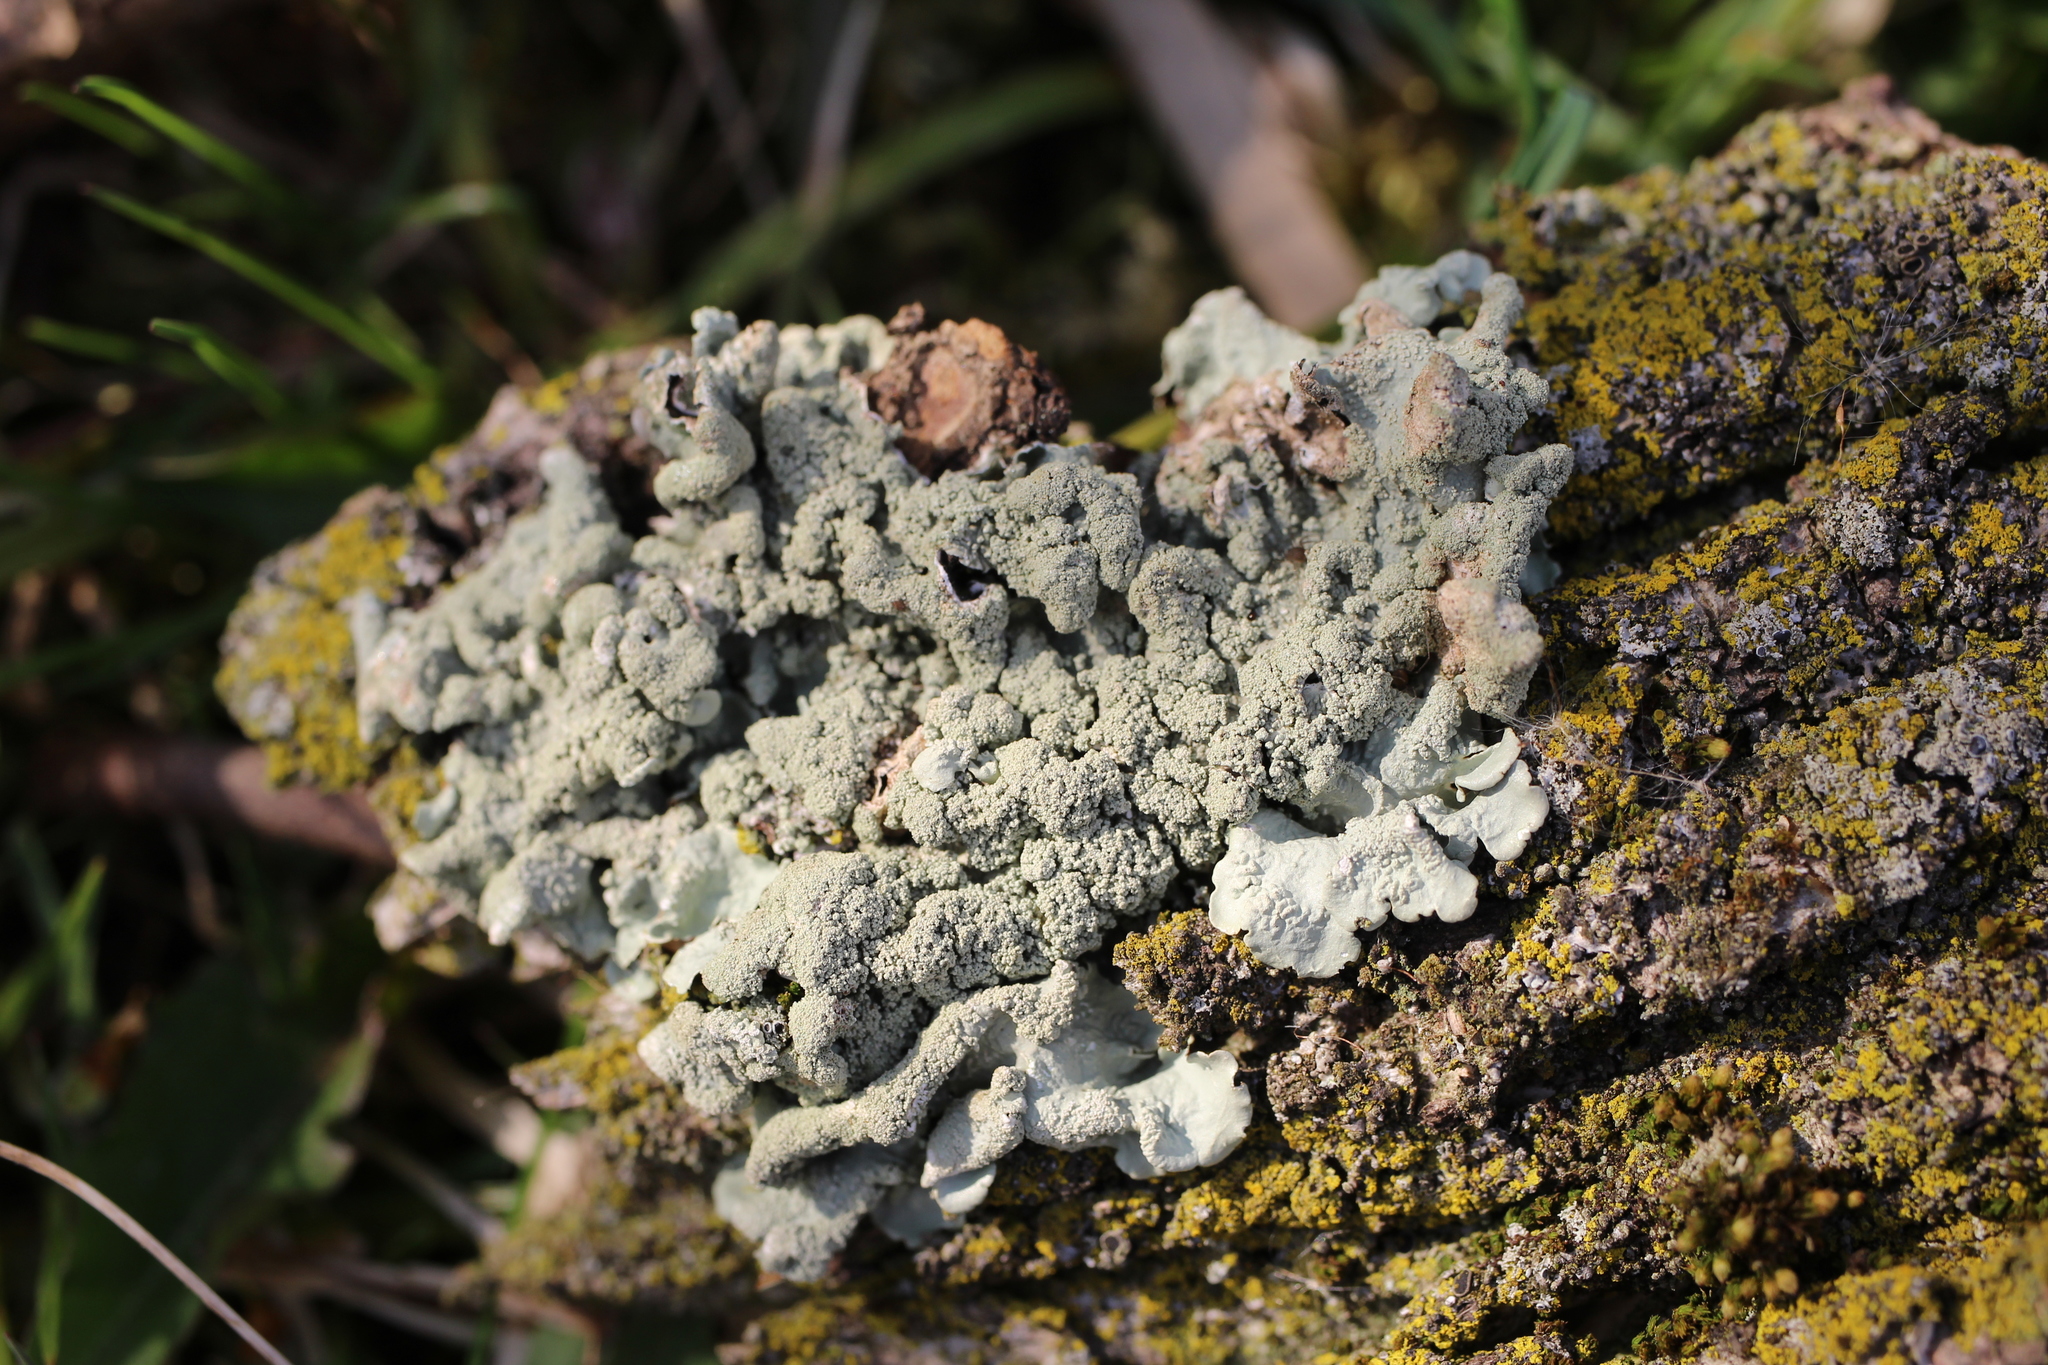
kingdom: Fungi
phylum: Ascomycota
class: Lecanoromycetes
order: Lecanorales
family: Parmeliaceae
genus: Myelochroa
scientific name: Myelochroa aurulenta
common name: Powdery axil-bristle lichen
